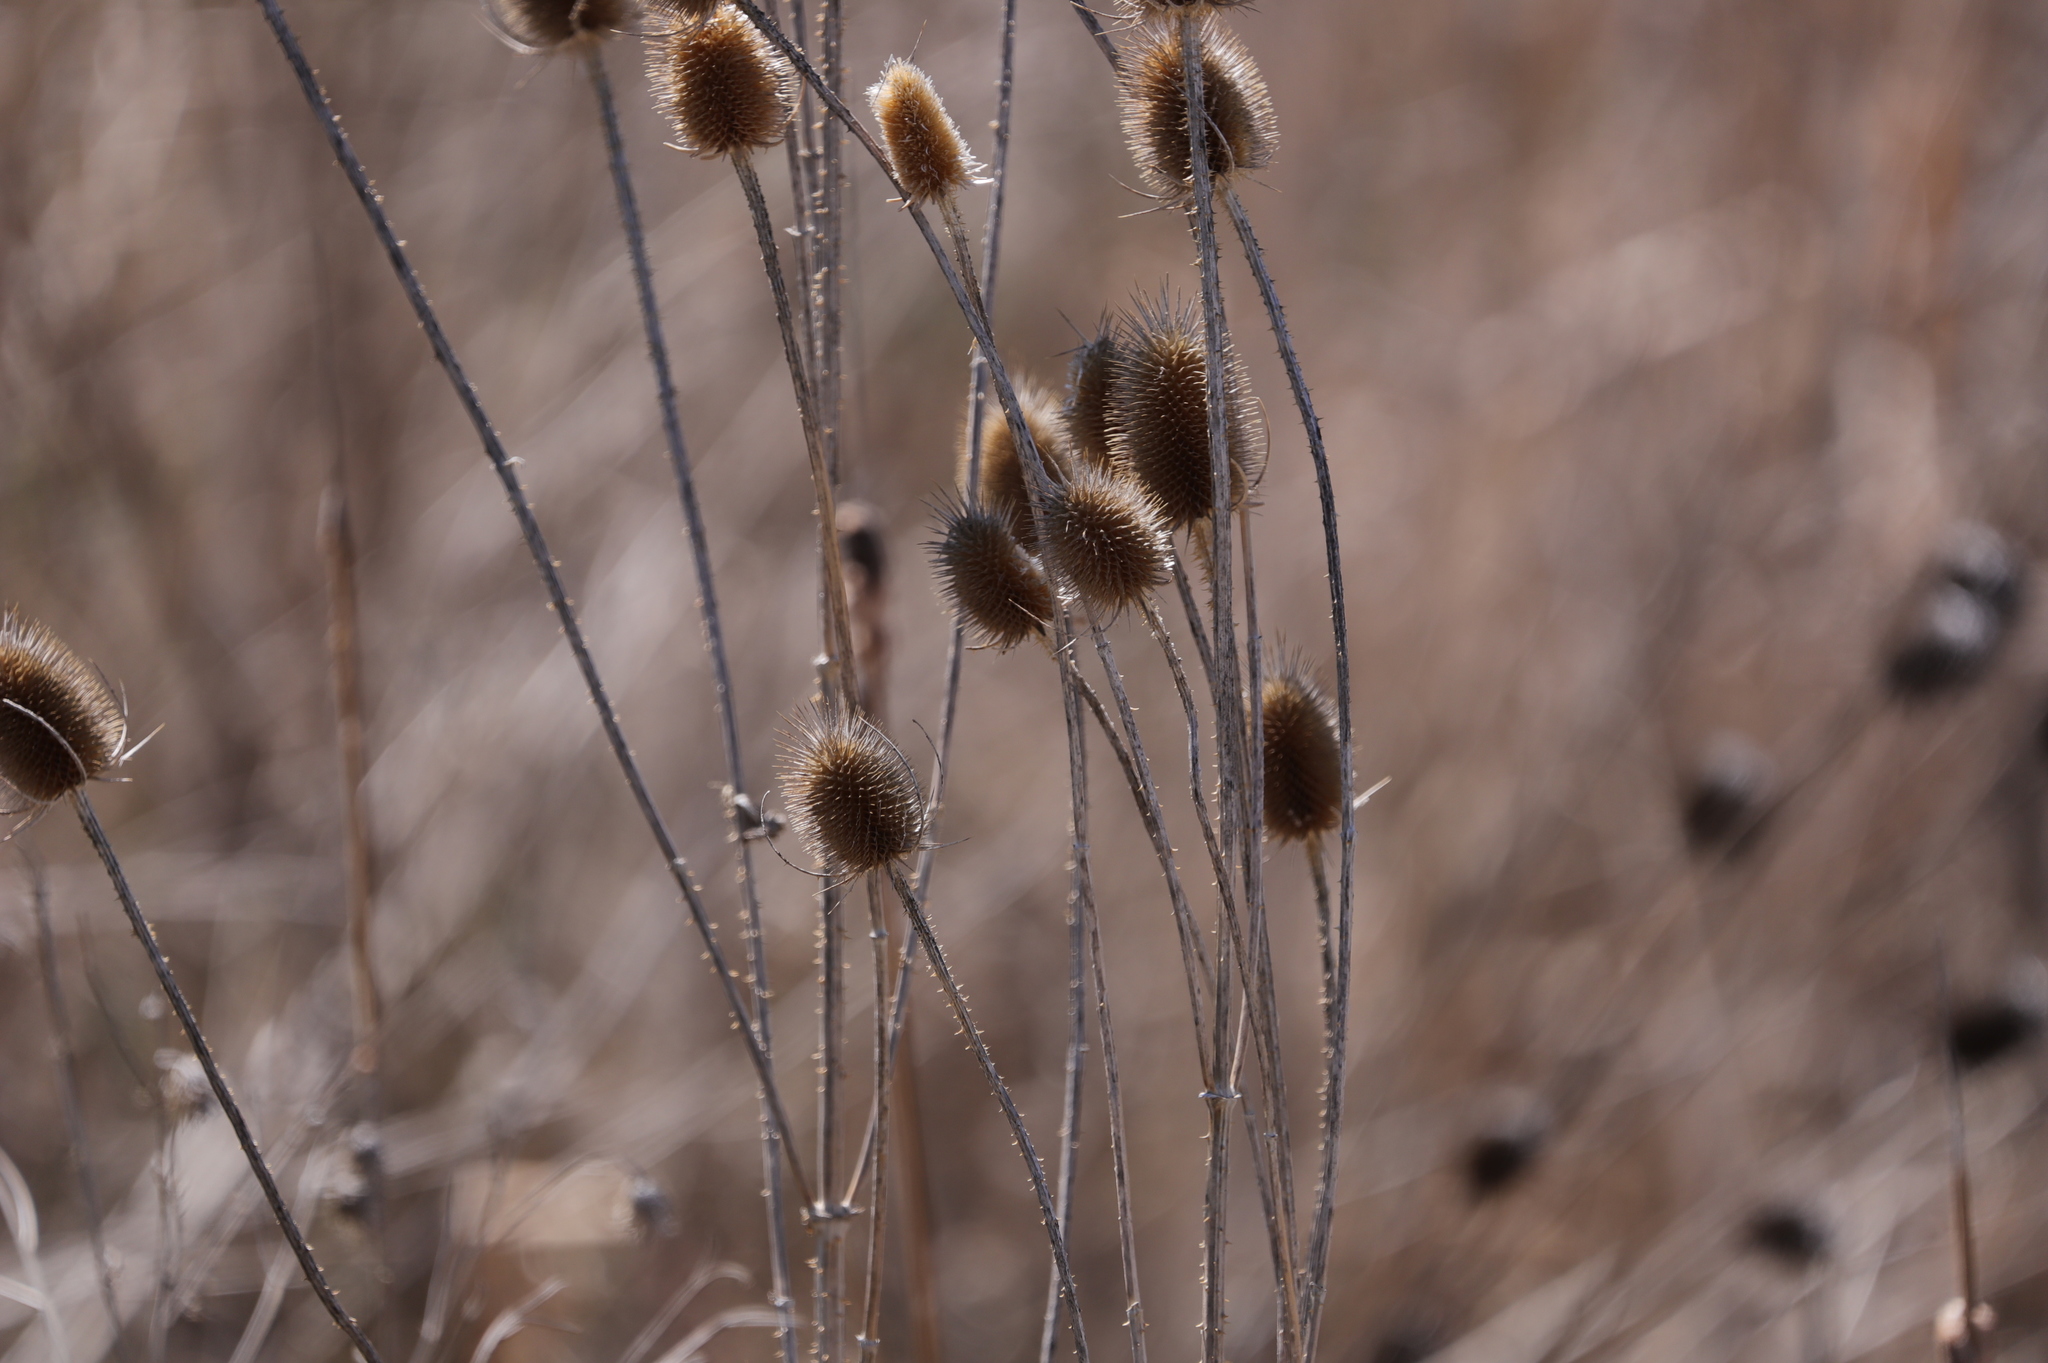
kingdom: Plantae
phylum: Tracheophyta
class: Magnoliopsida
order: Dipsacales
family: Caprifoliaceae
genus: Dipsacus
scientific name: Dipsacus fullonum
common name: Teasel
